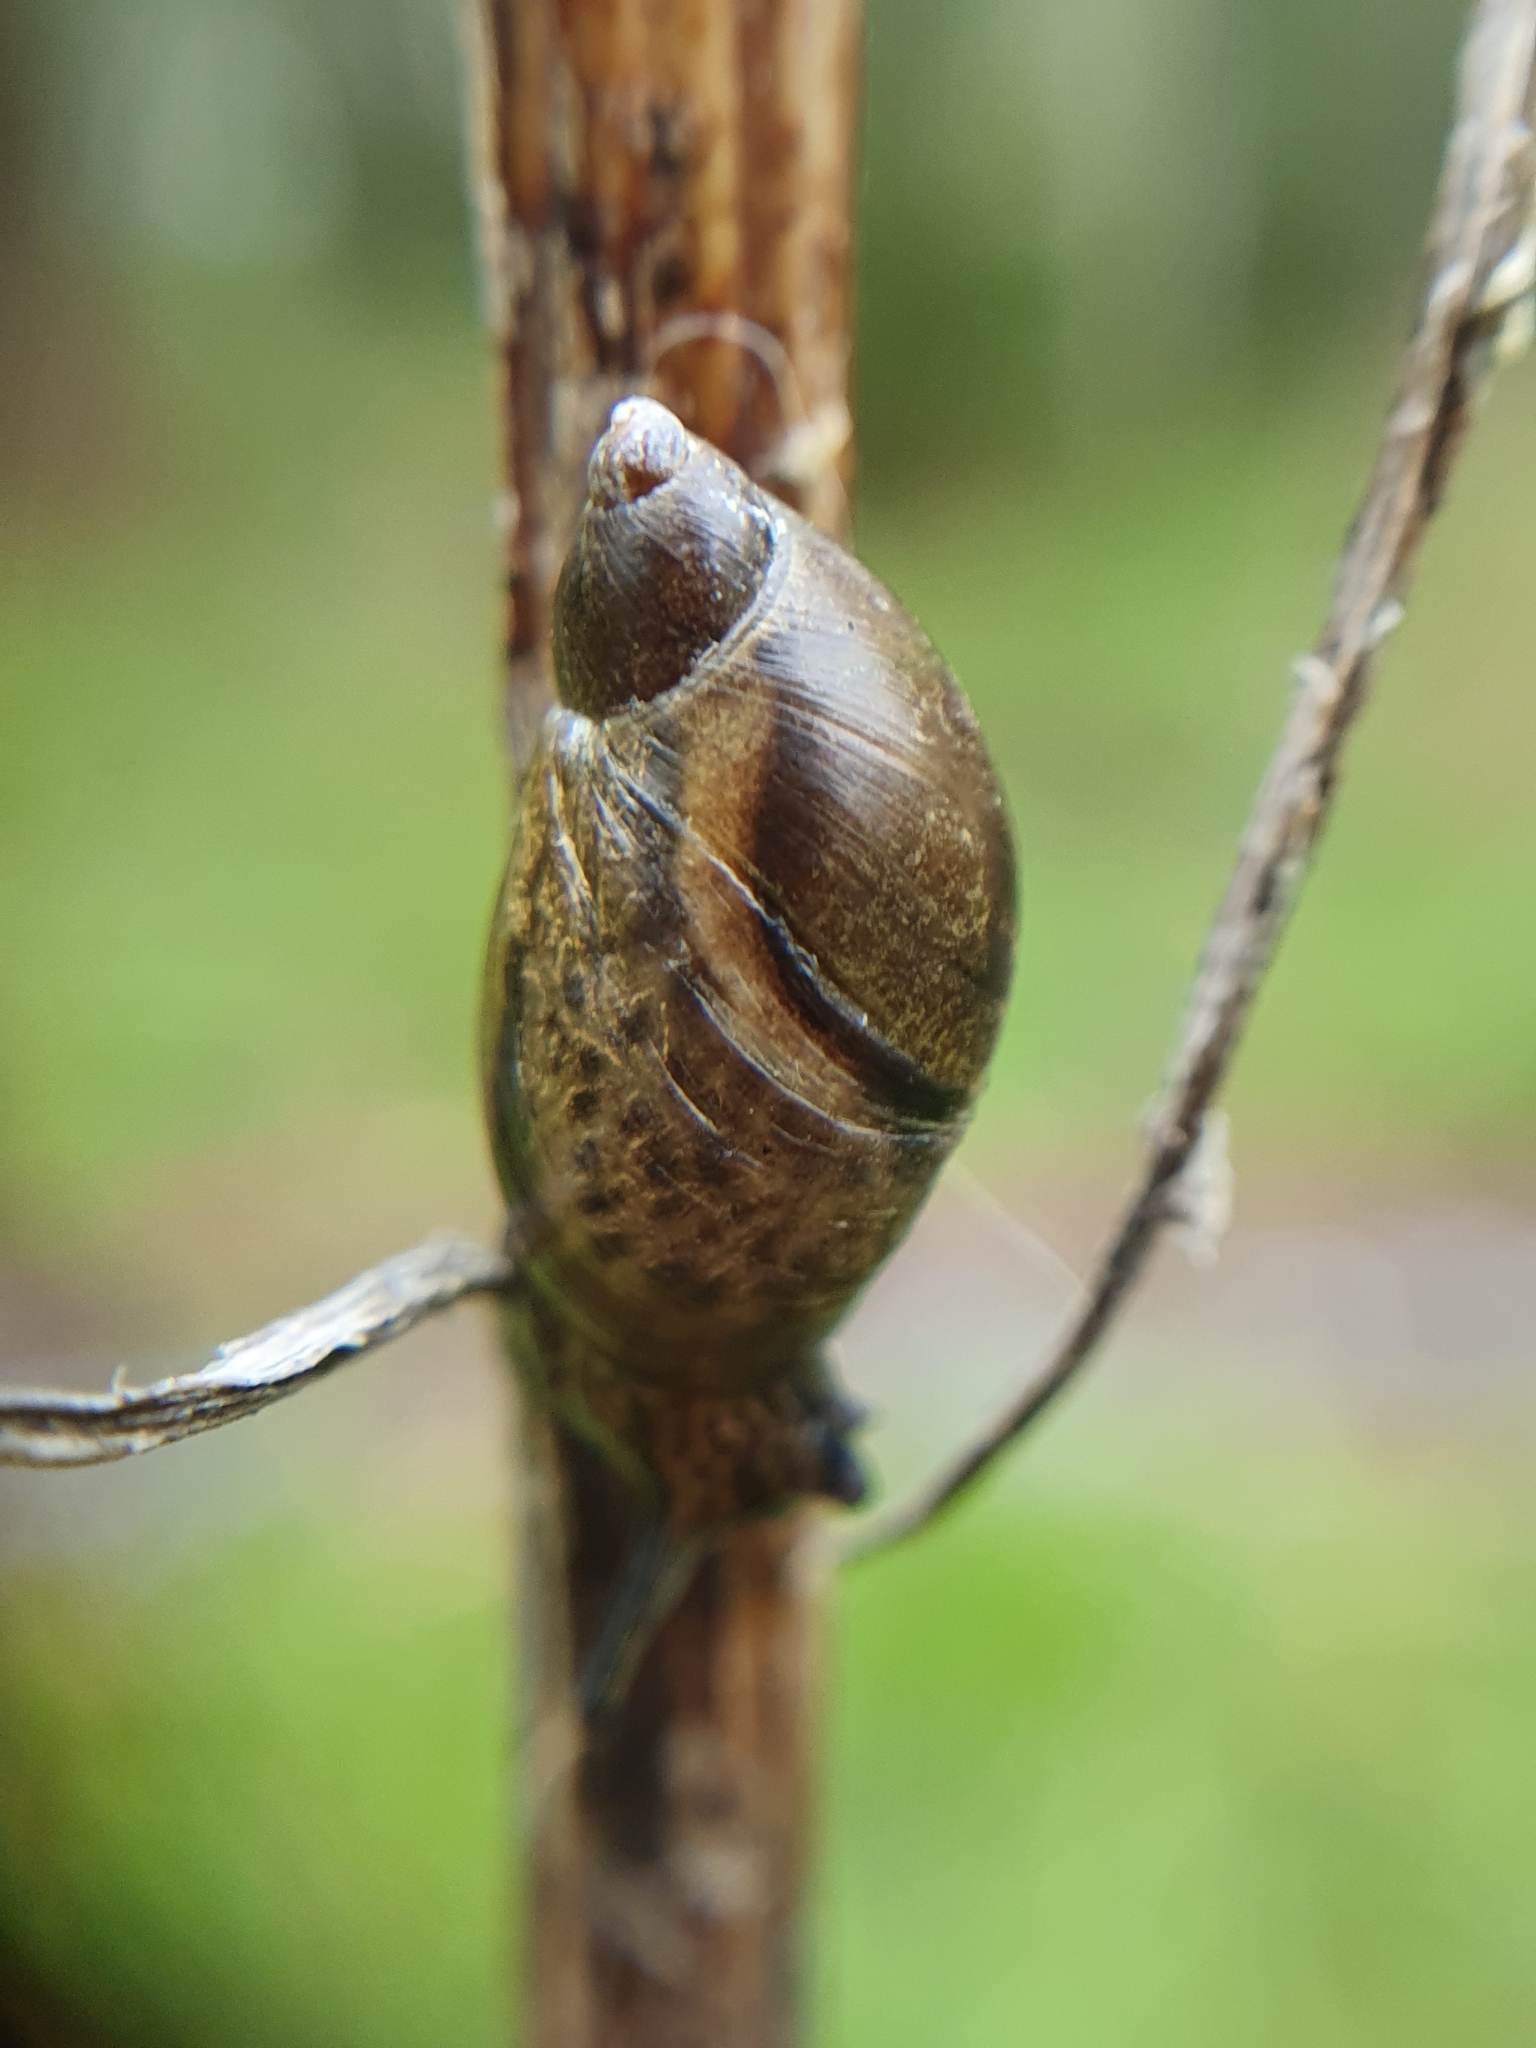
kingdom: Animalia
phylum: Mollusca
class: Gastropoda
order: Stylommatophora
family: Succineidae
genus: Succinea
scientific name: Succinea putris
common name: European ambersnail
